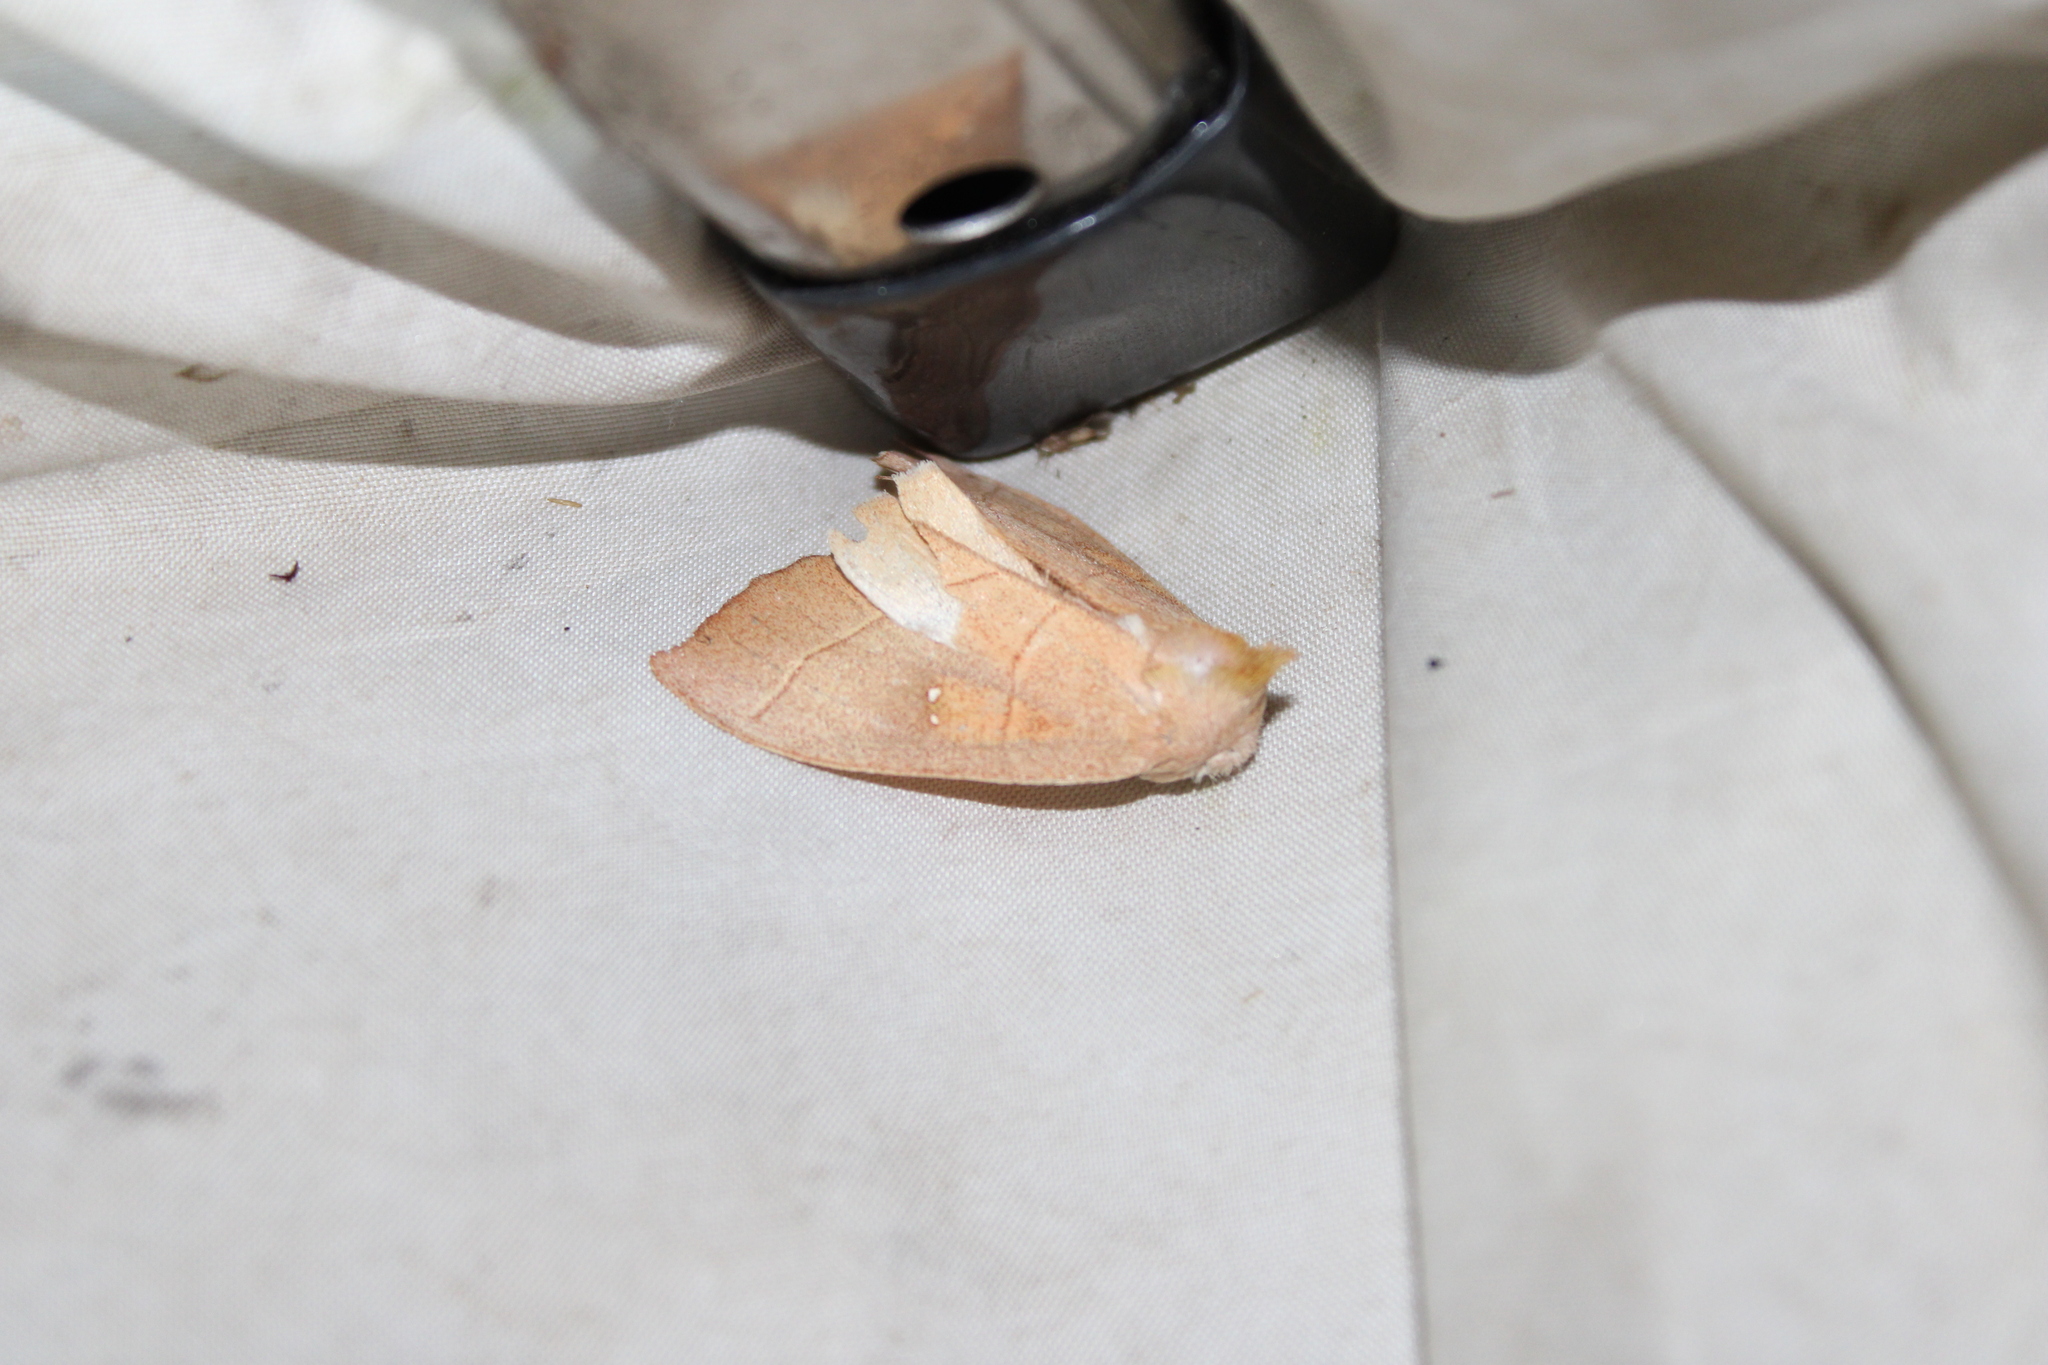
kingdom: Animalia
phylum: Arthropoda
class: Insecta
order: Lepidoptera
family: Notodontidae
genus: Nadata
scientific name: Nadata gibbosa
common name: White-dotted prominent
